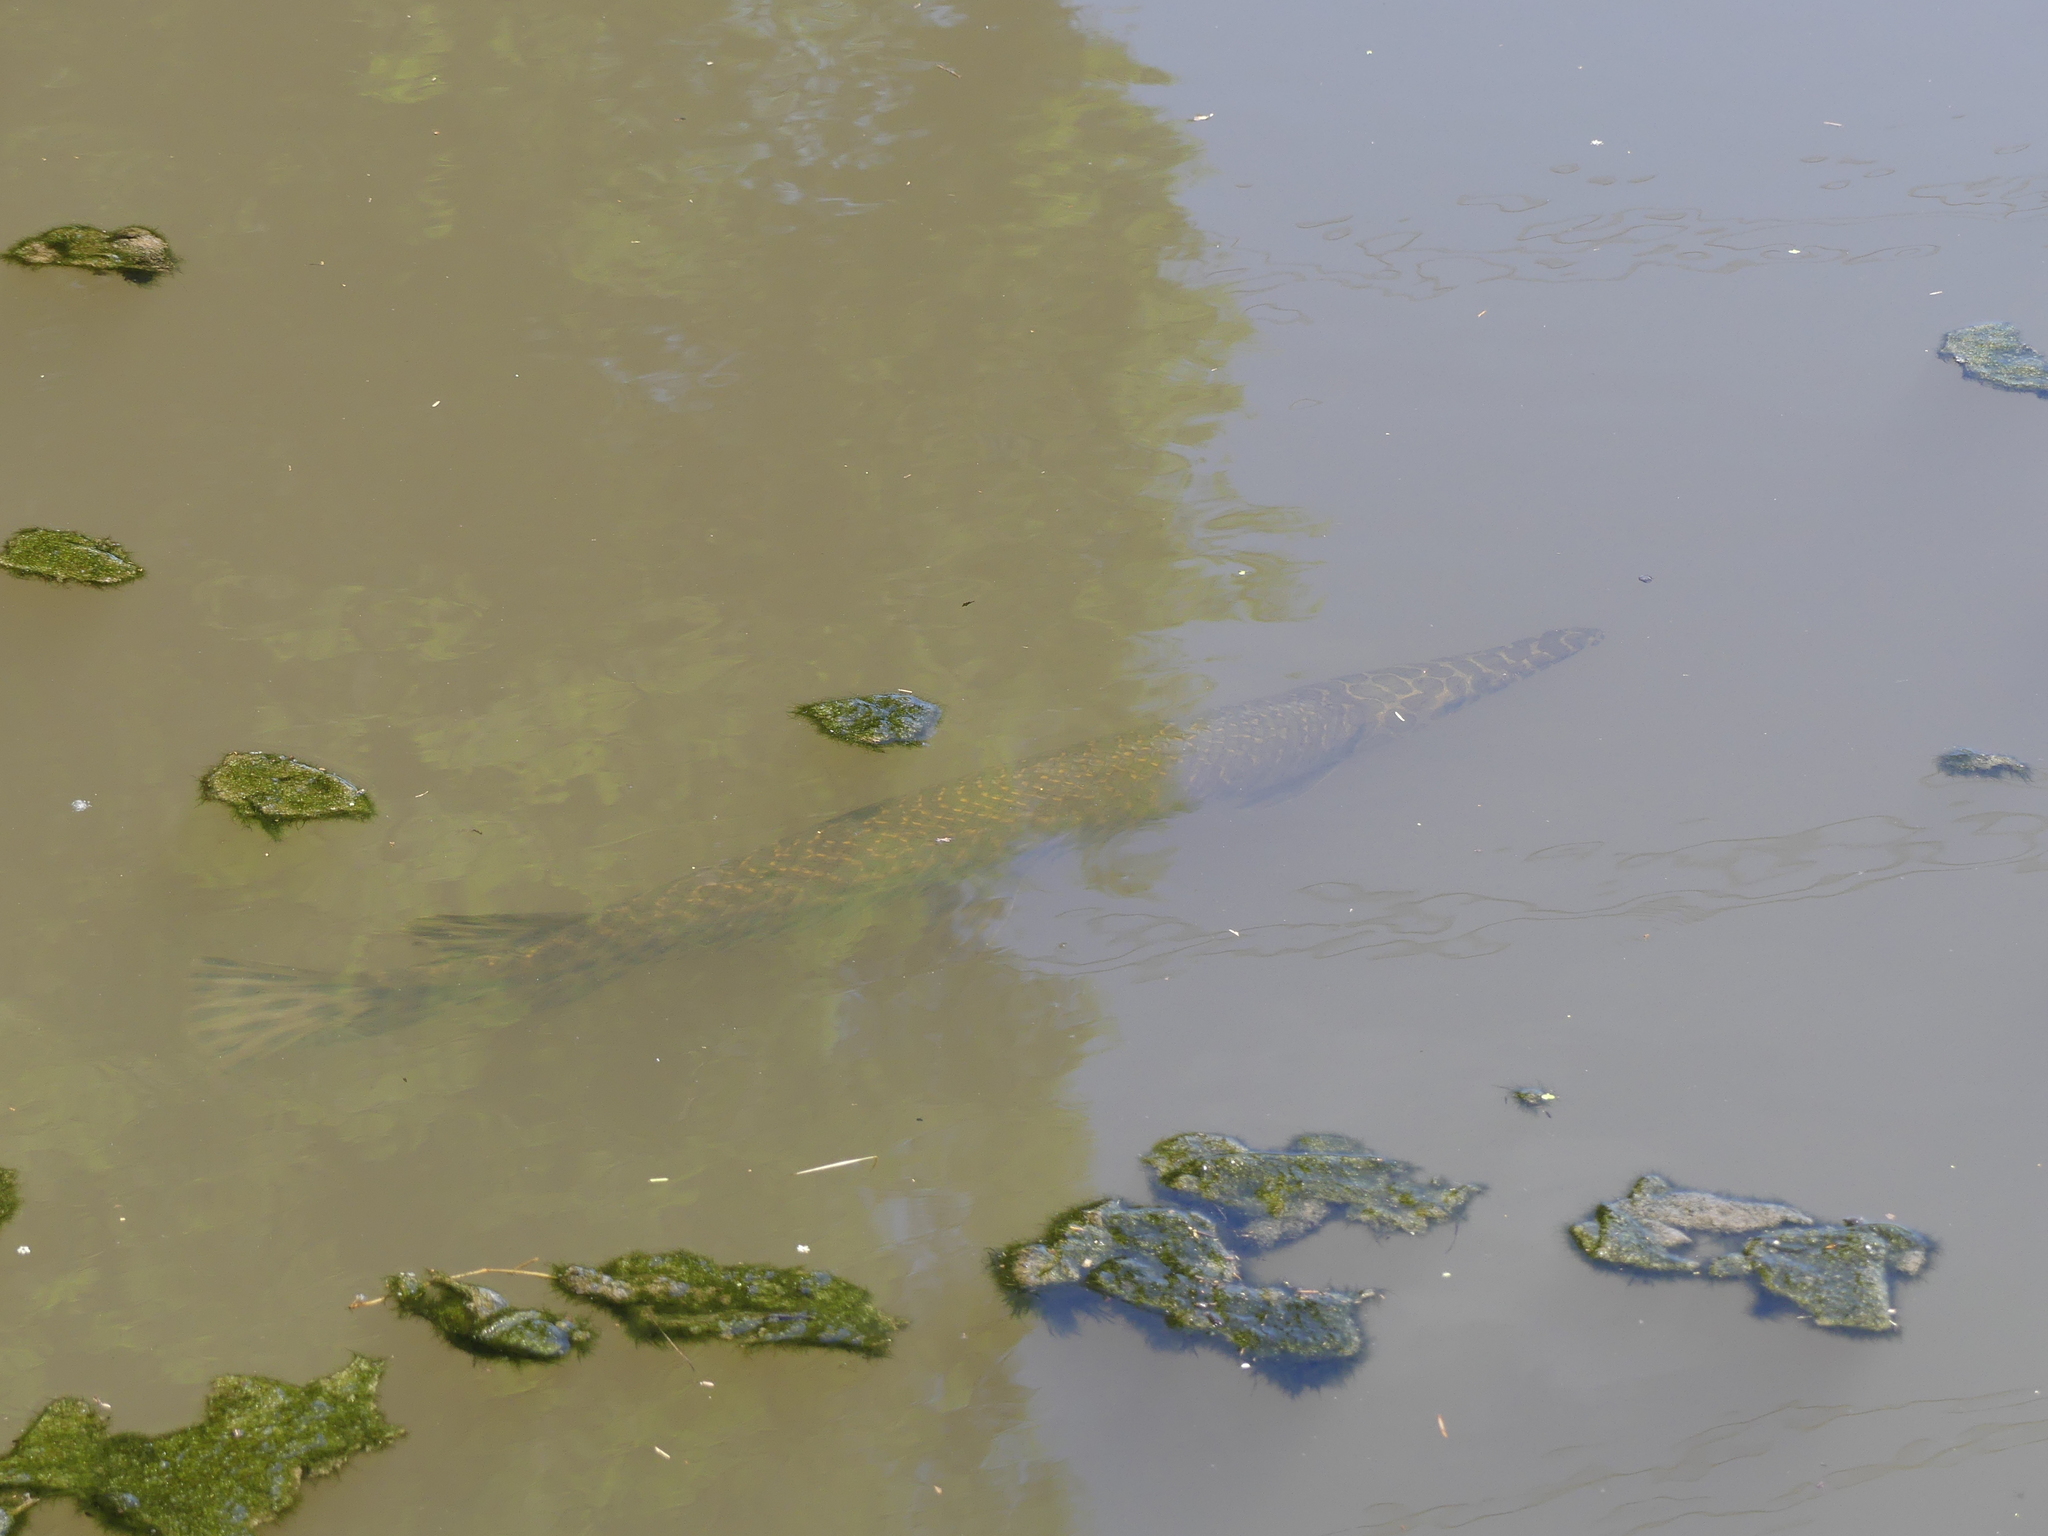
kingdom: Animalia
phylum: Chordata
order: Lepisosteiformes
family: Lepisosteidae
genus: Lepisosteus
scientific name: Lepisosteus oculatus
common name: Spotted gar
